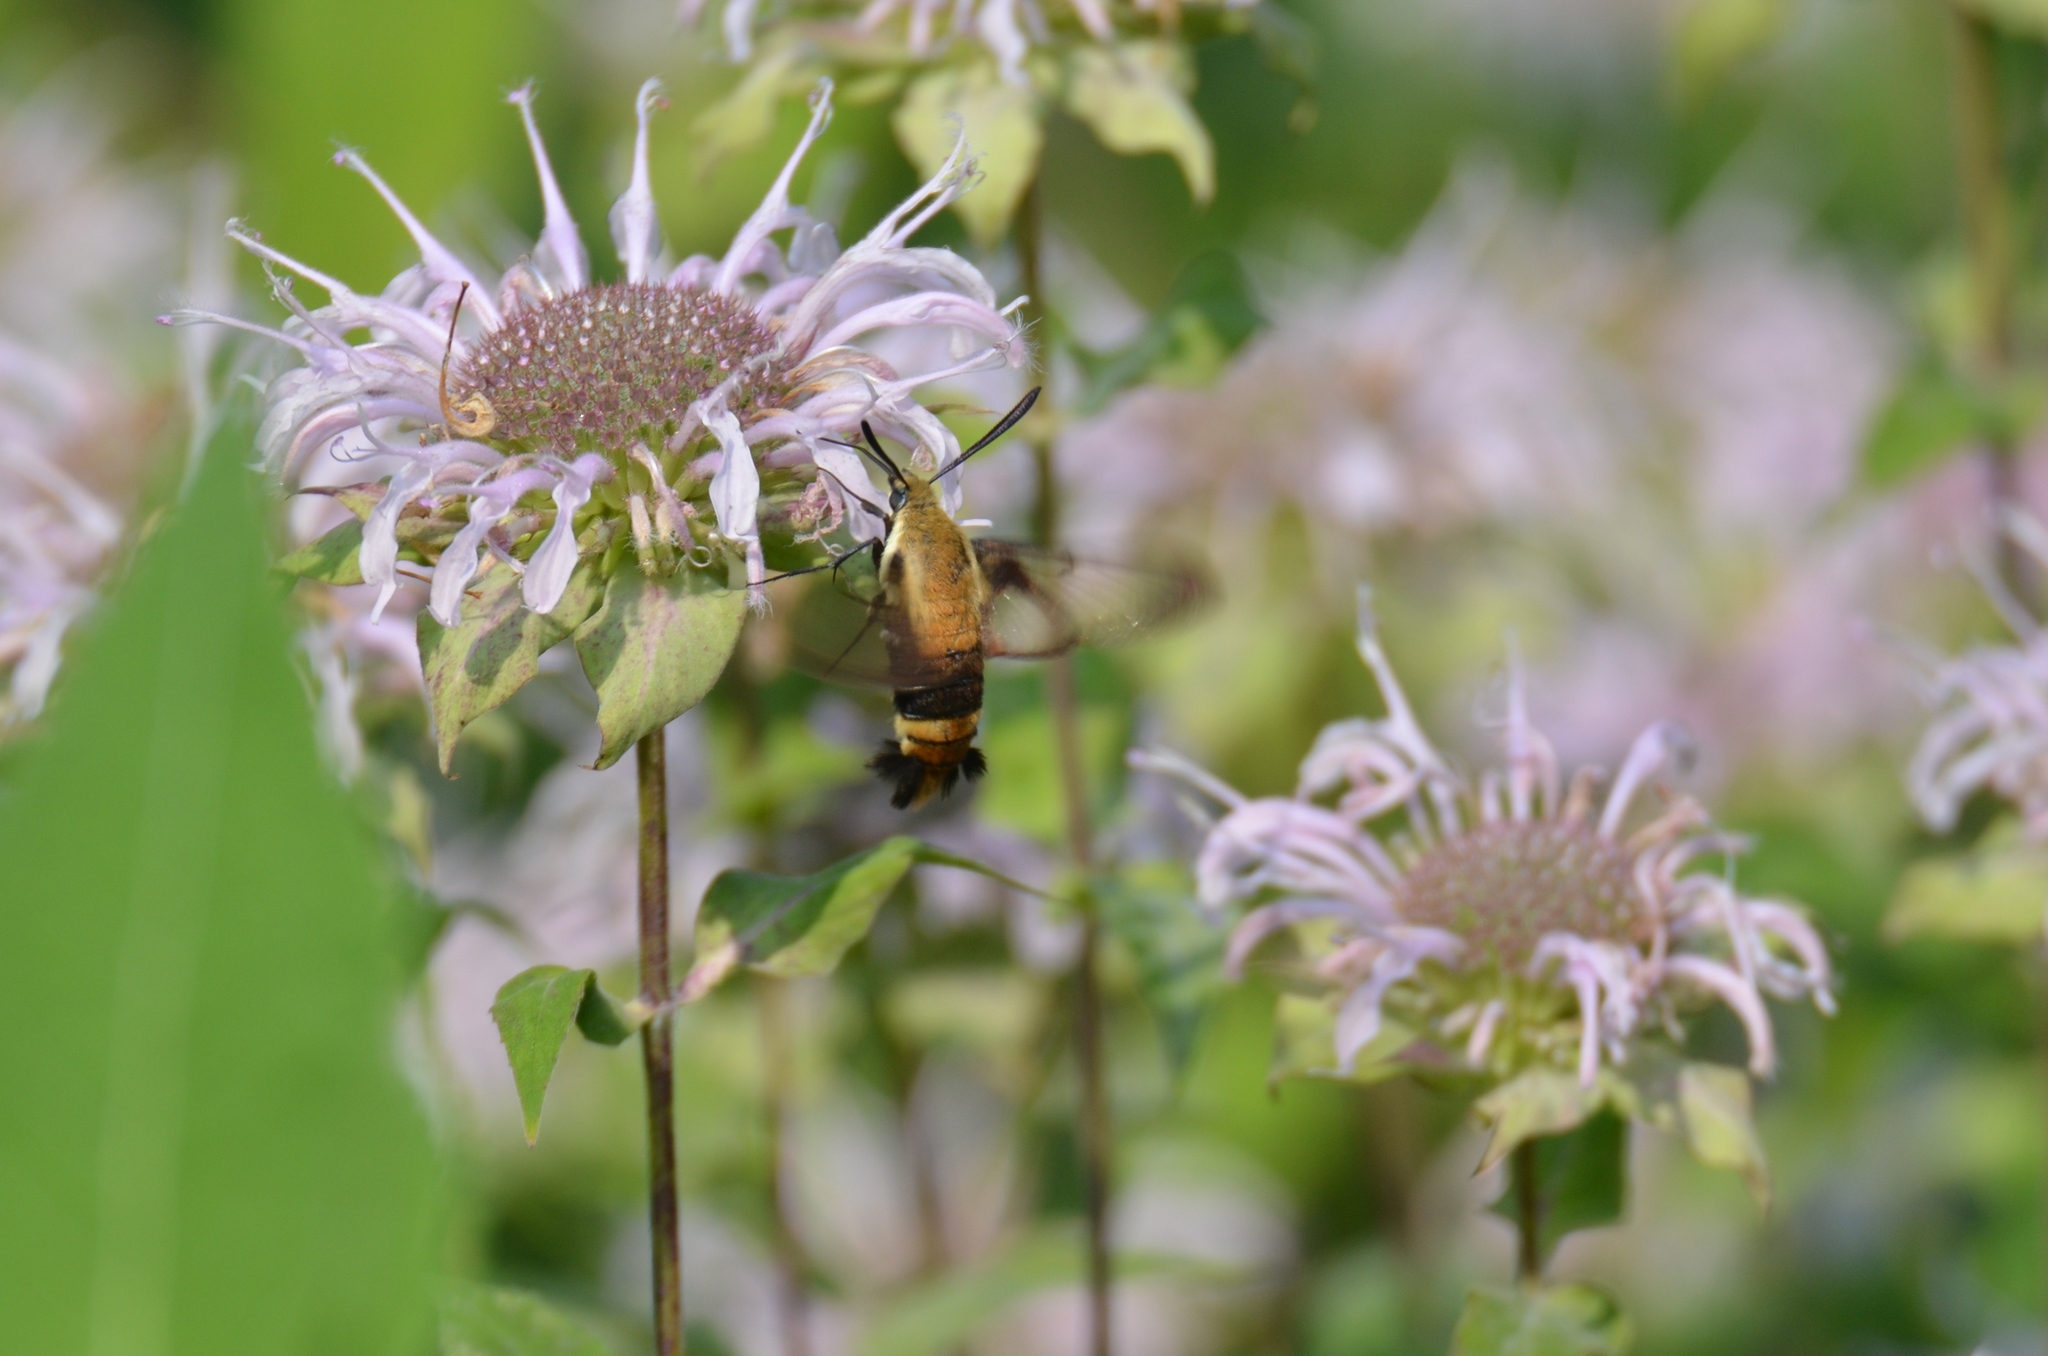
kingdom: Animalia
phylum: Arthropoda
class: Insecta
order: Lepidoptera
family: Sphingidae
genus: Hemaris
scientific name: Hemaris diffinis
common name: Bumblebee moth
